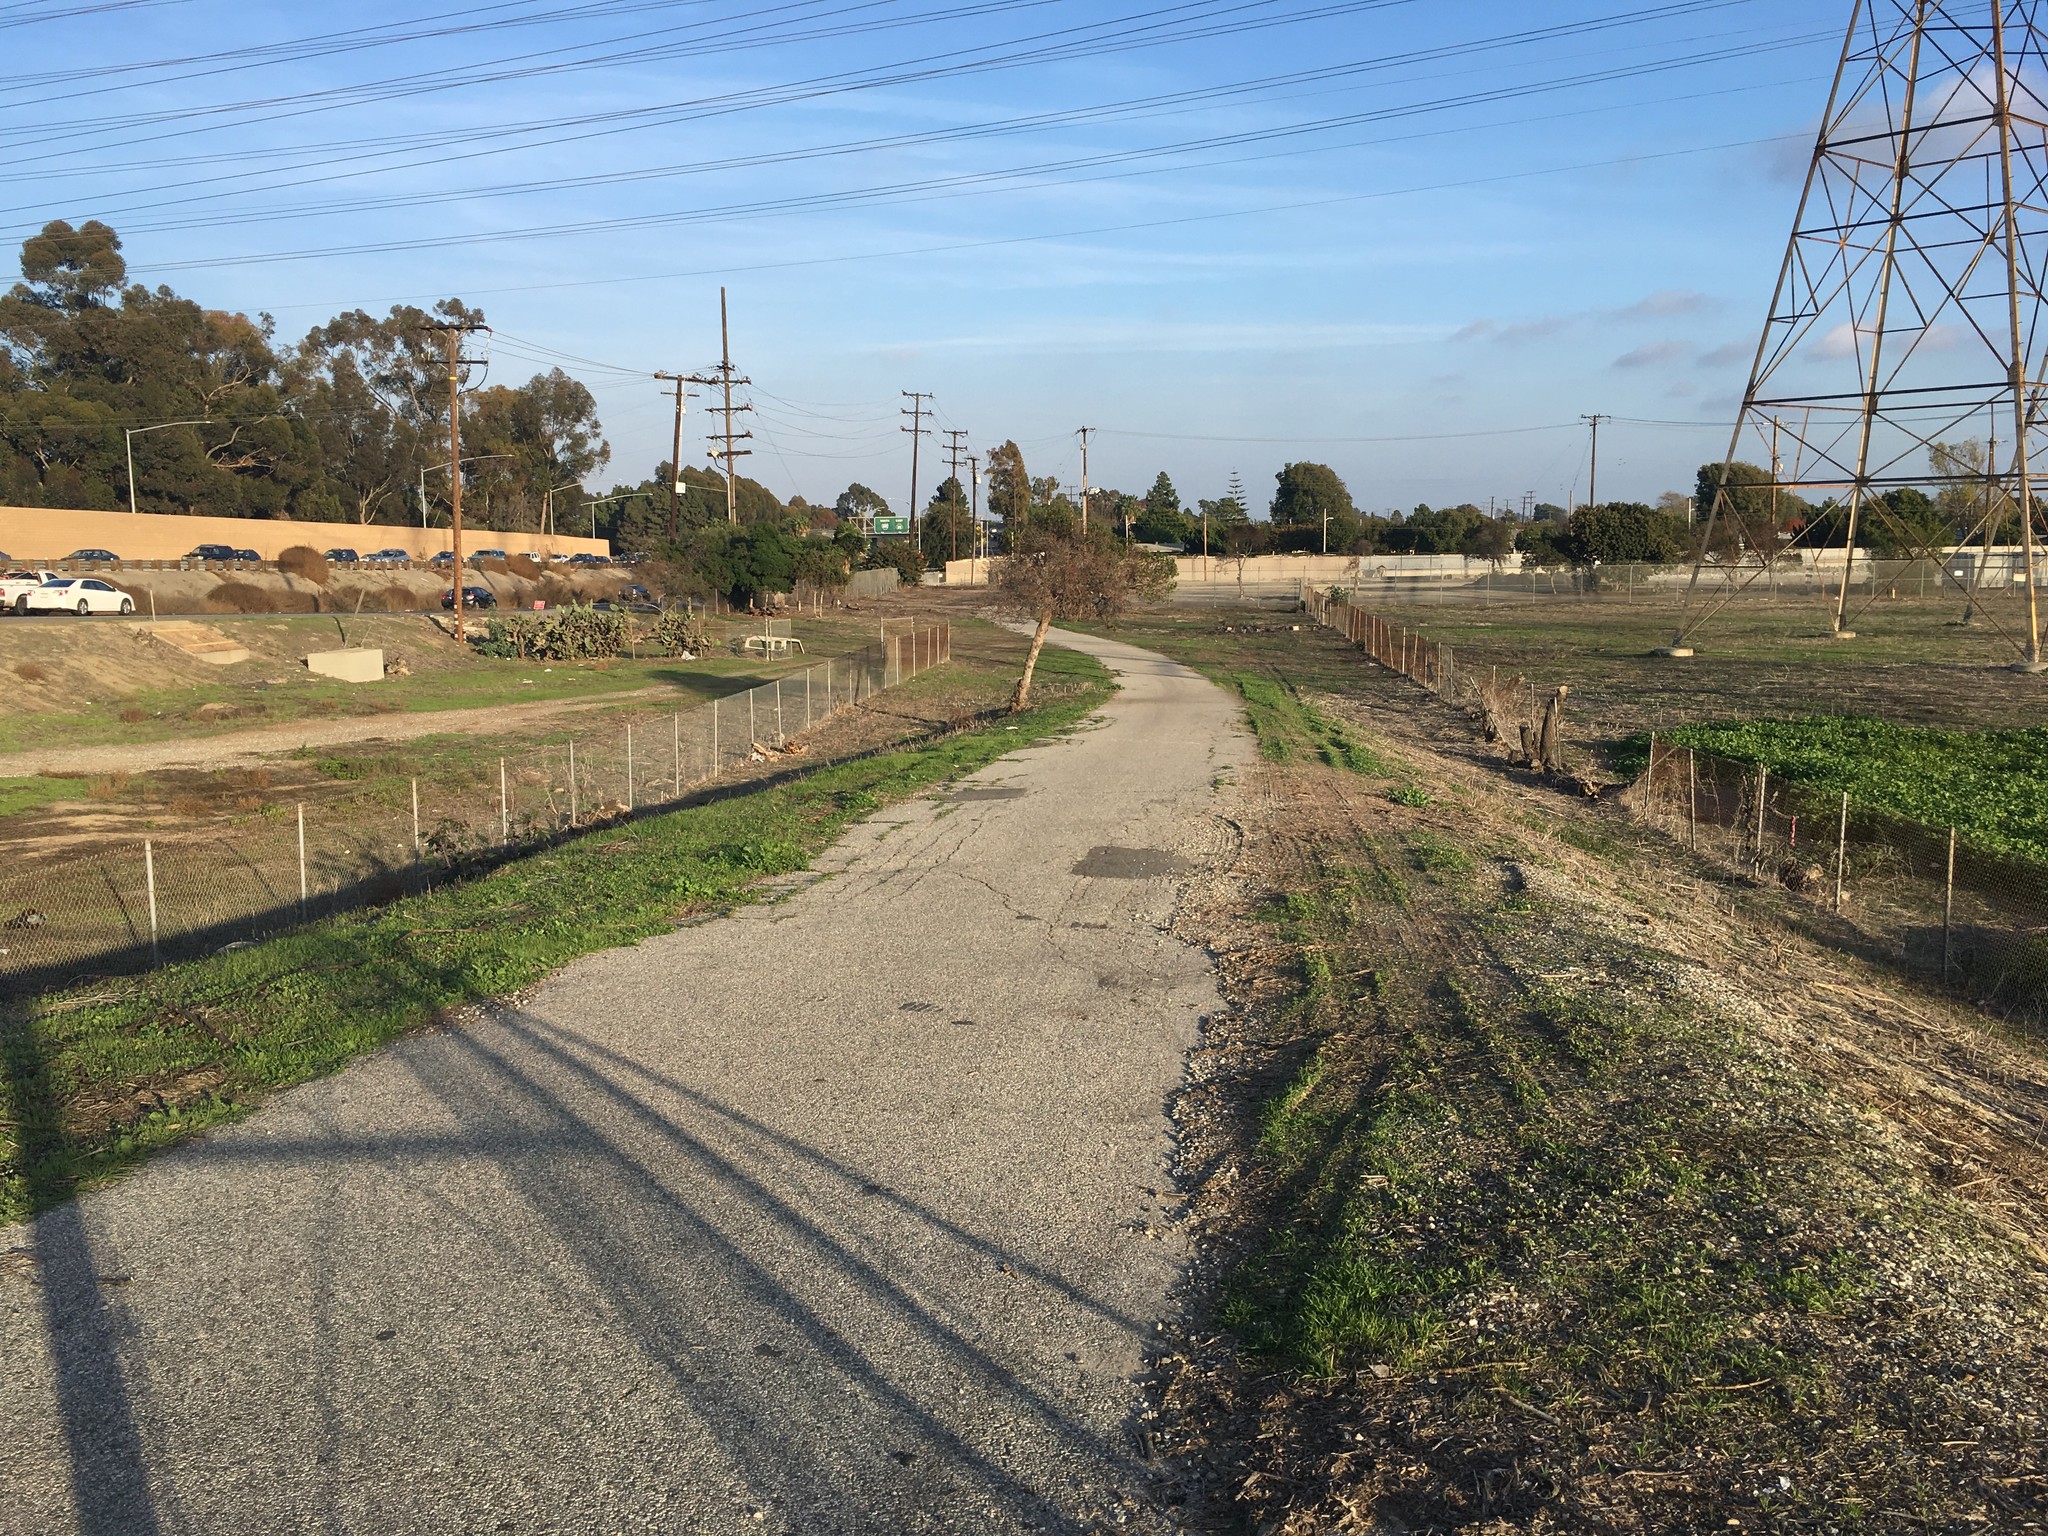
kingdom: Plantae
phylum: Tracheophyta
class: Magnoliopsida
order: Lamiales
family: Scrophulariaceae
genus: Myoporum
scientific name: Myoporum laetum
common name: Ngaio tree
